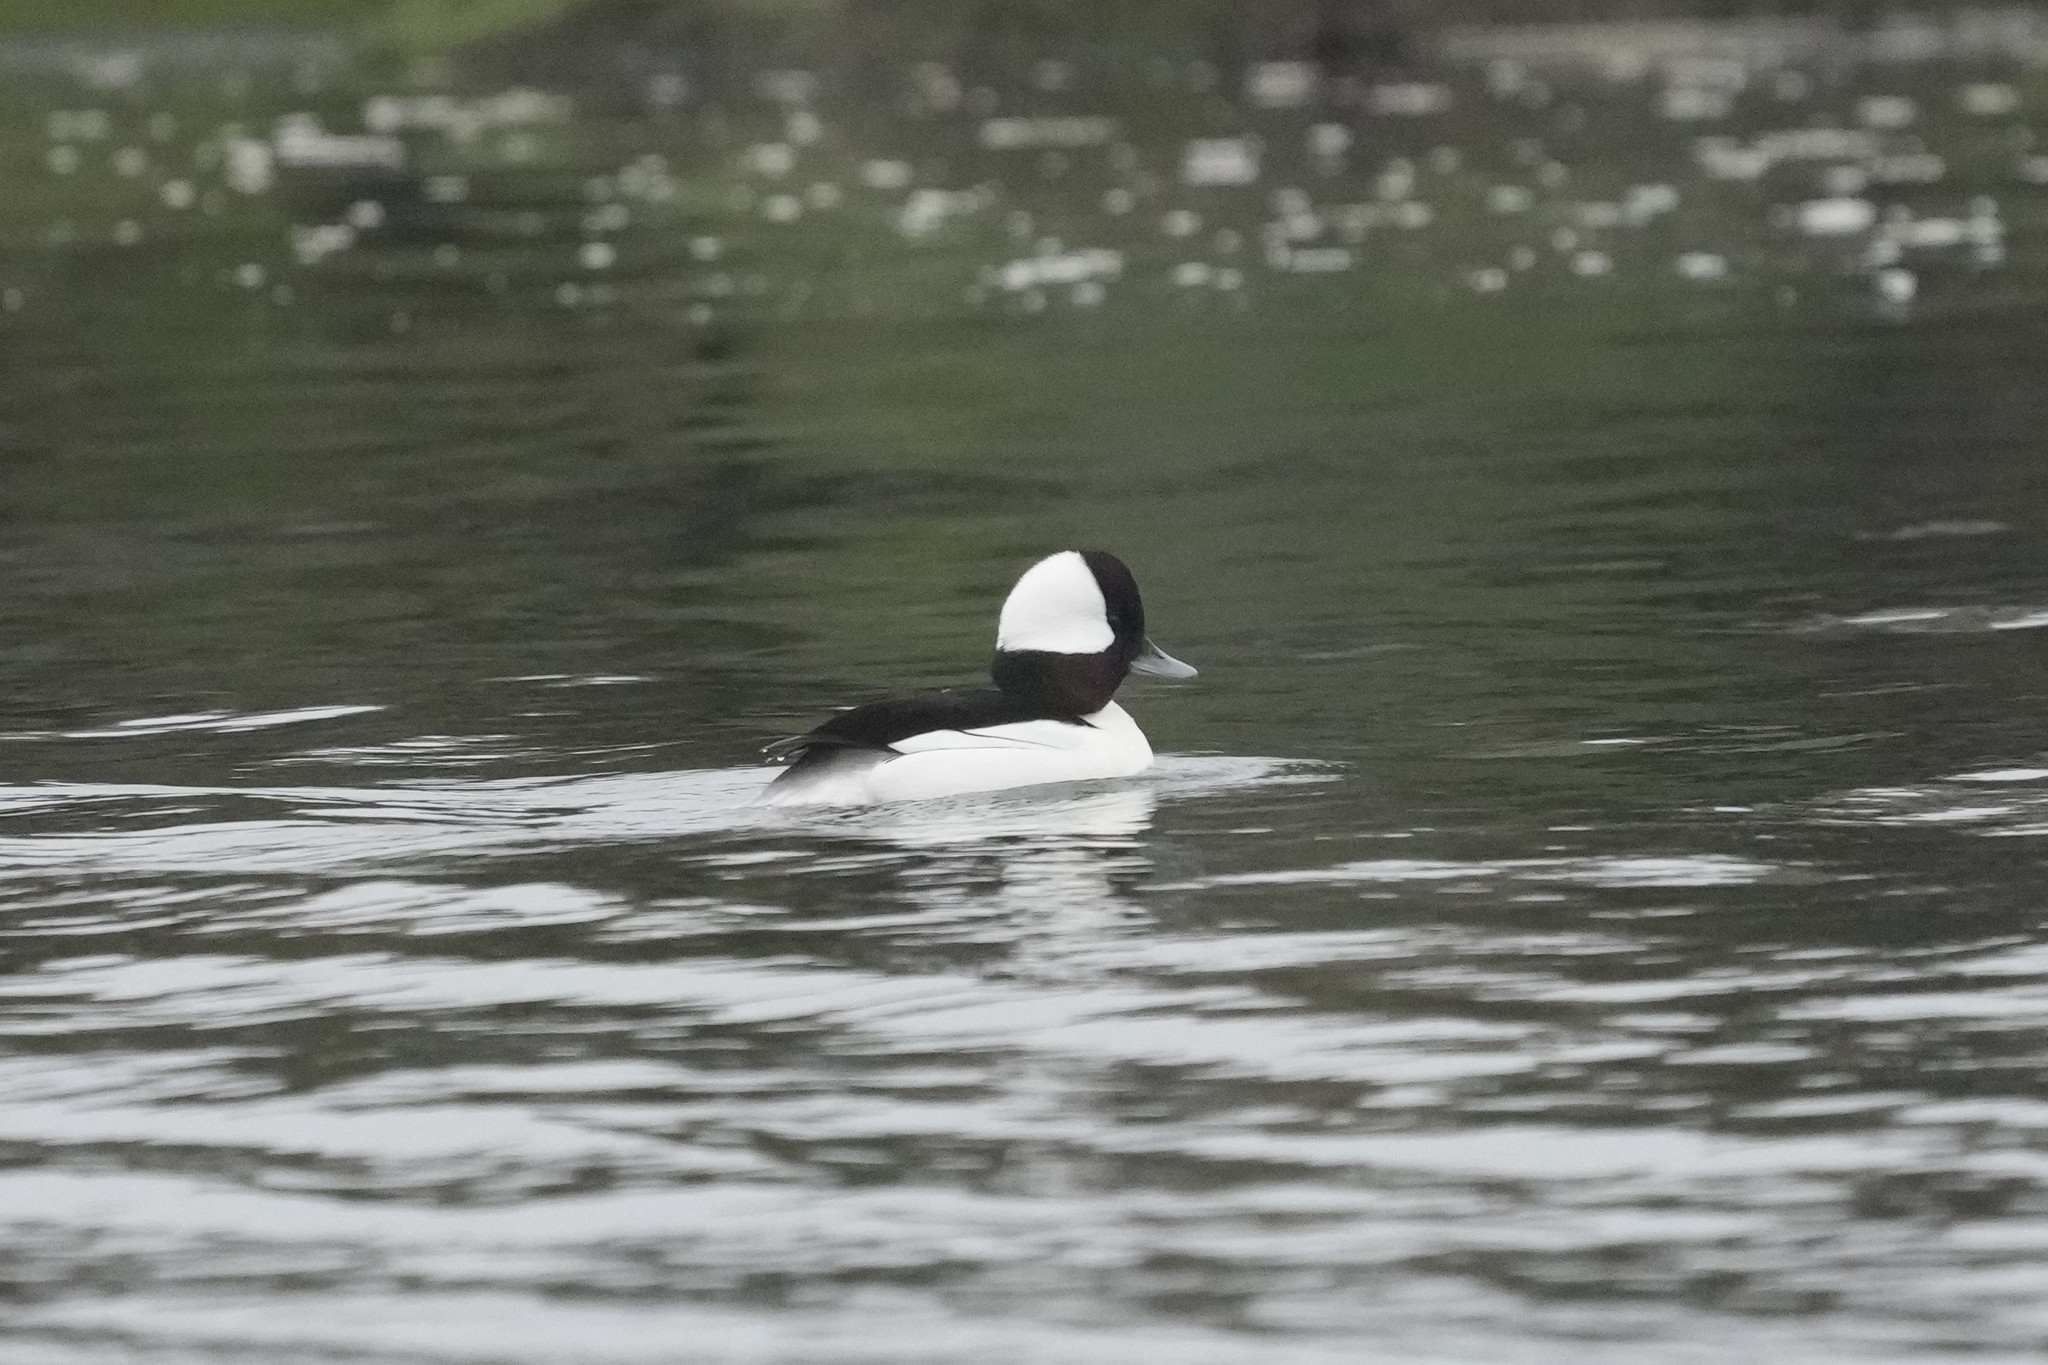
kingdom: Animalia
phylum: Chordata
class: Aves
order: Anseriformes
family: Anatidae
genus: Bucephala
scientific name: Bucephala albeola
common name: Bufflehead
